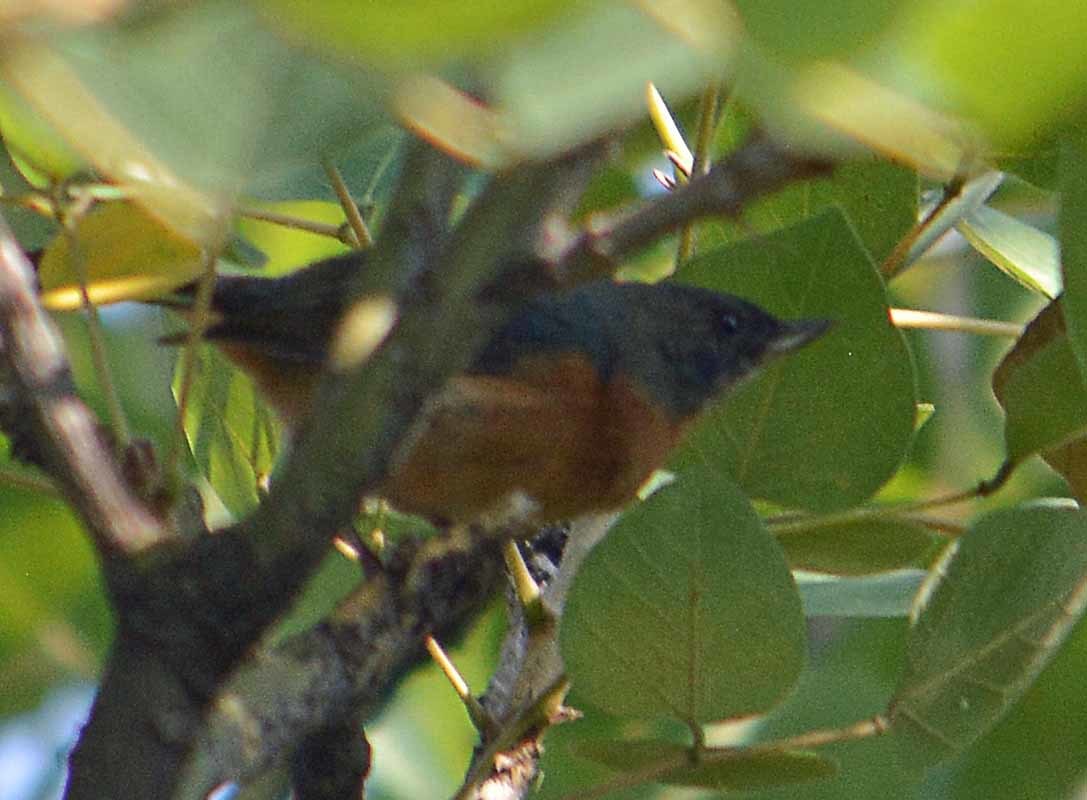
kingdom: Animalia
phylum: Chordata
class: Aves
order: Passeriformes
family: Thraupidae
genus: Diglossa
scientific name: Diglossa baritula
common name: Cinnamon-bellied flowerpiercer
